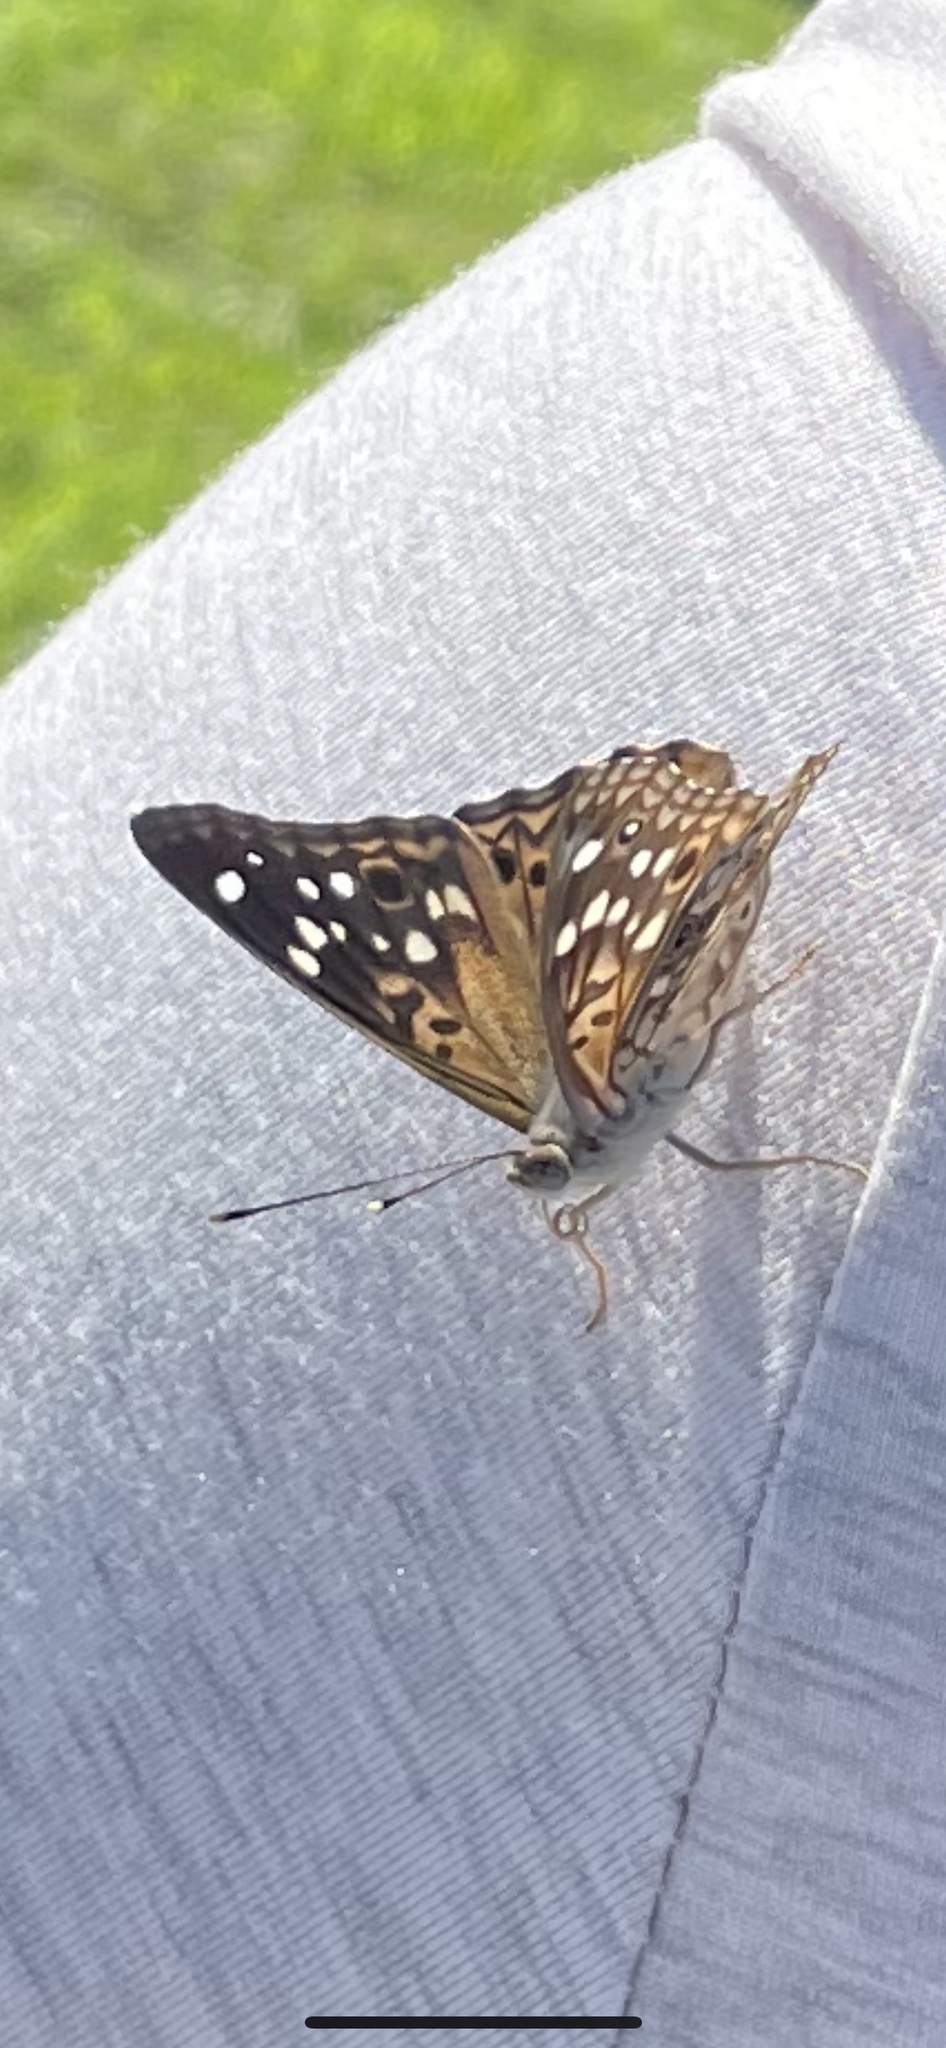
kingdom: Animalia
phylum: Arthropoda
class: Insecta
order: Lepidoptera
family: Nymphalidae
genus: Asterocampa
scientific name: Asterocampa celtis
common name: Hackberry emperor
